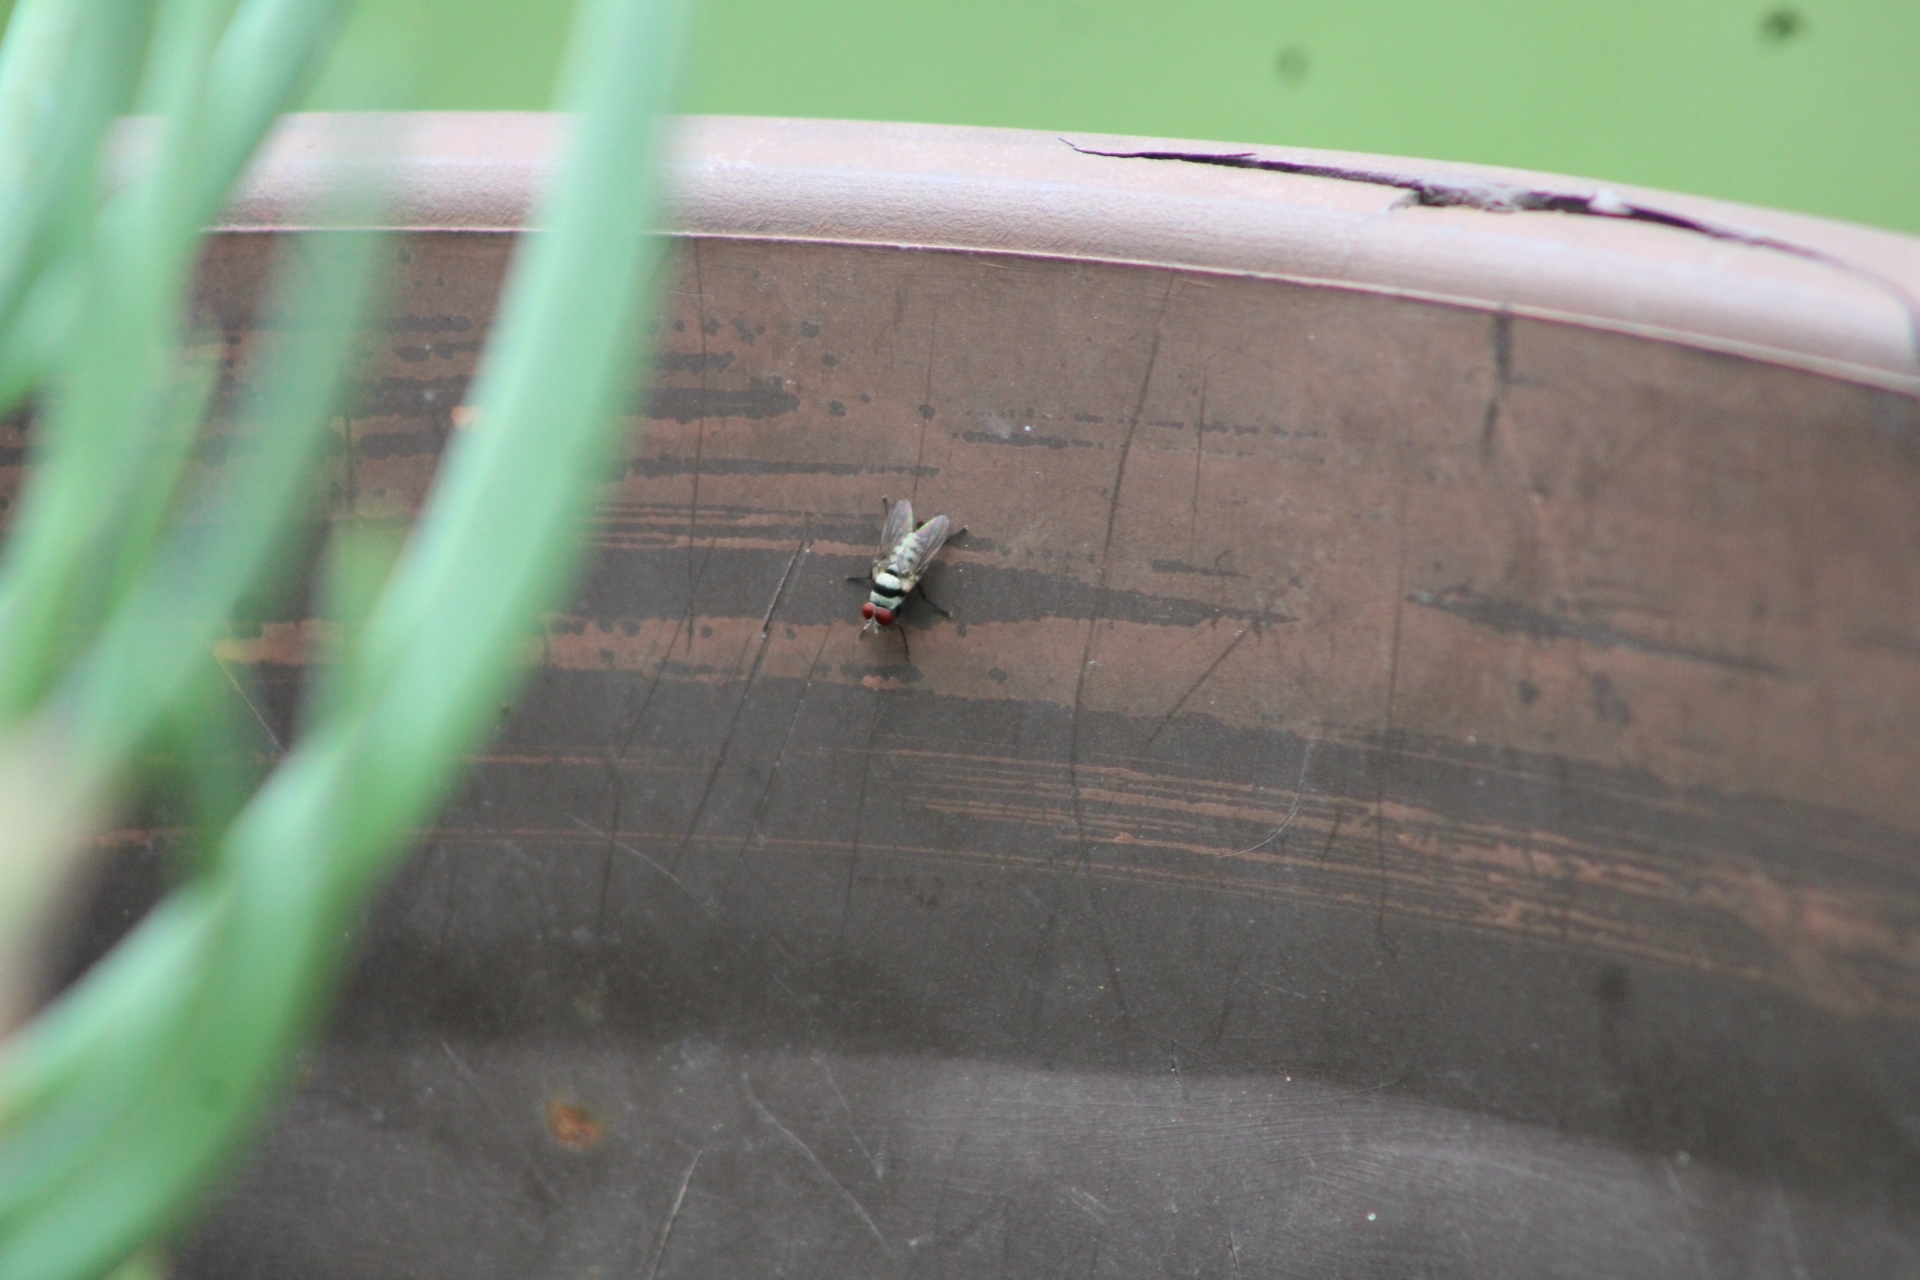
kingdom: Animalia
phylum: Arthropoda
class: Insecta
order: Diptera
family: Anthomyiidae
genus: Anthomyia
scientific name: Anthomyia illocata
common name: Fly
